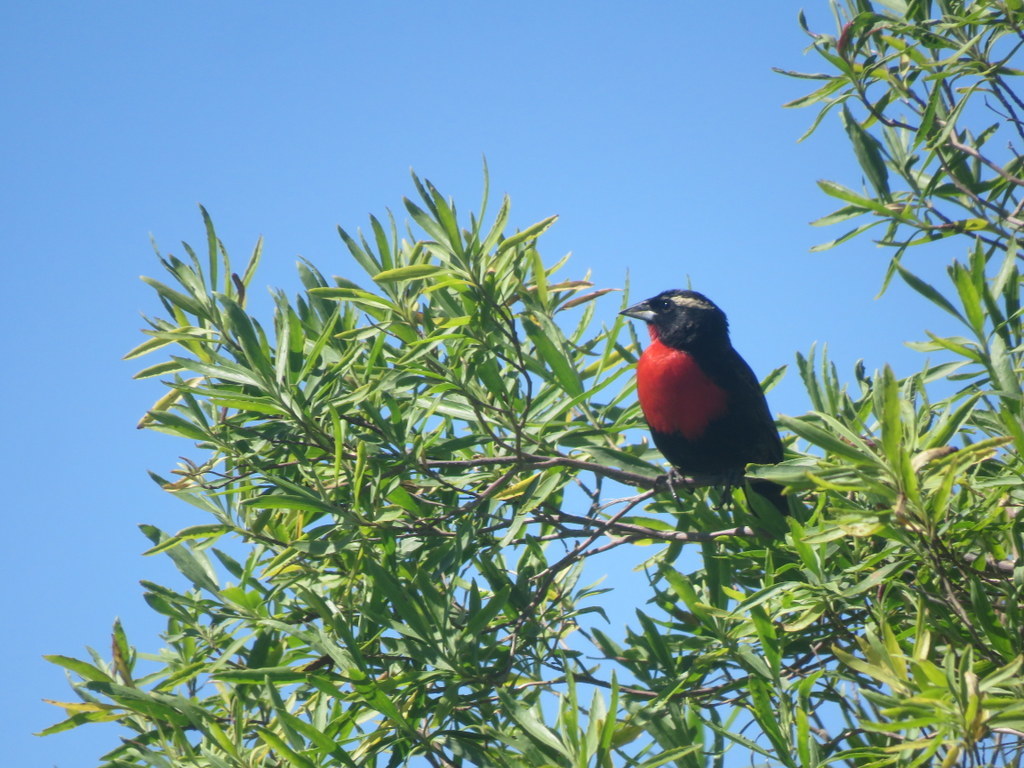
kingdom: Animalia
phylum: Chordata
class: Aves
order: Passeriformes
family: Icteridae
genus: Sturnella
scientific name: Sturnella superciliaris
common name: White-browed blackbird
